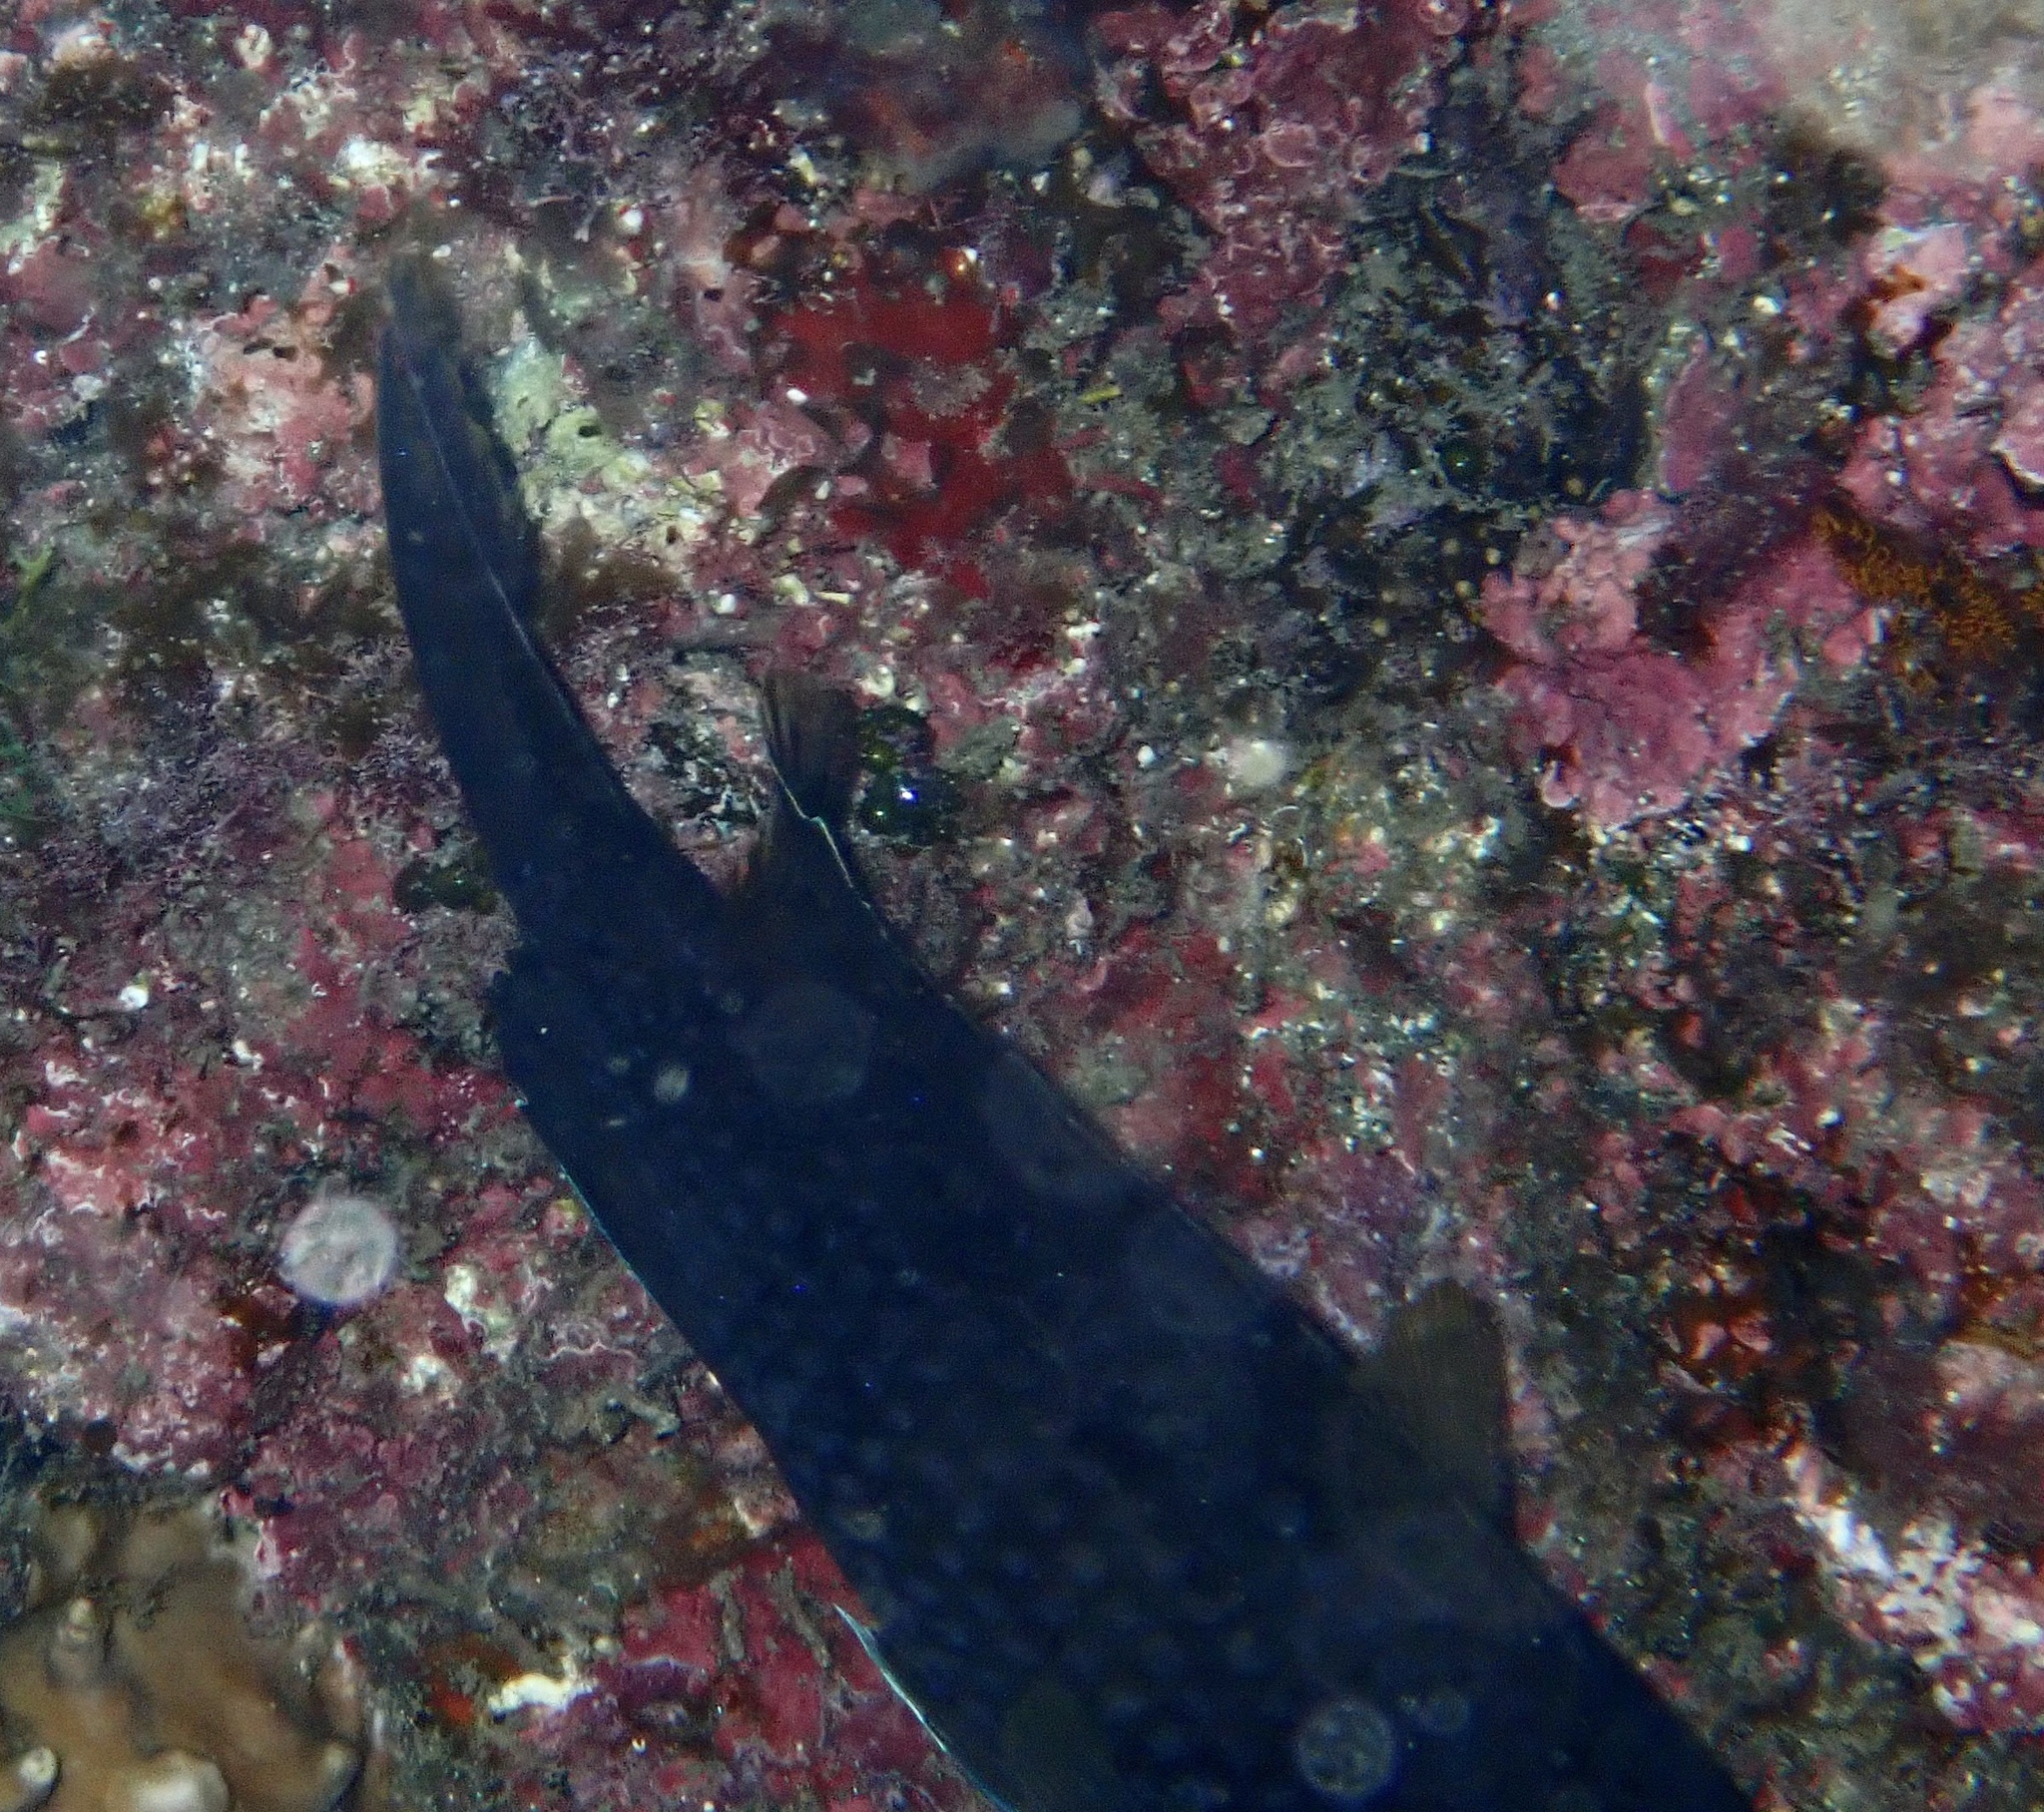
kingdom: Animalia
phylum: Chordata
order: Perciformes
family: Pomacentridae
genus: Chromis
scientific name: Chromis chromis
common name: Damselfish
